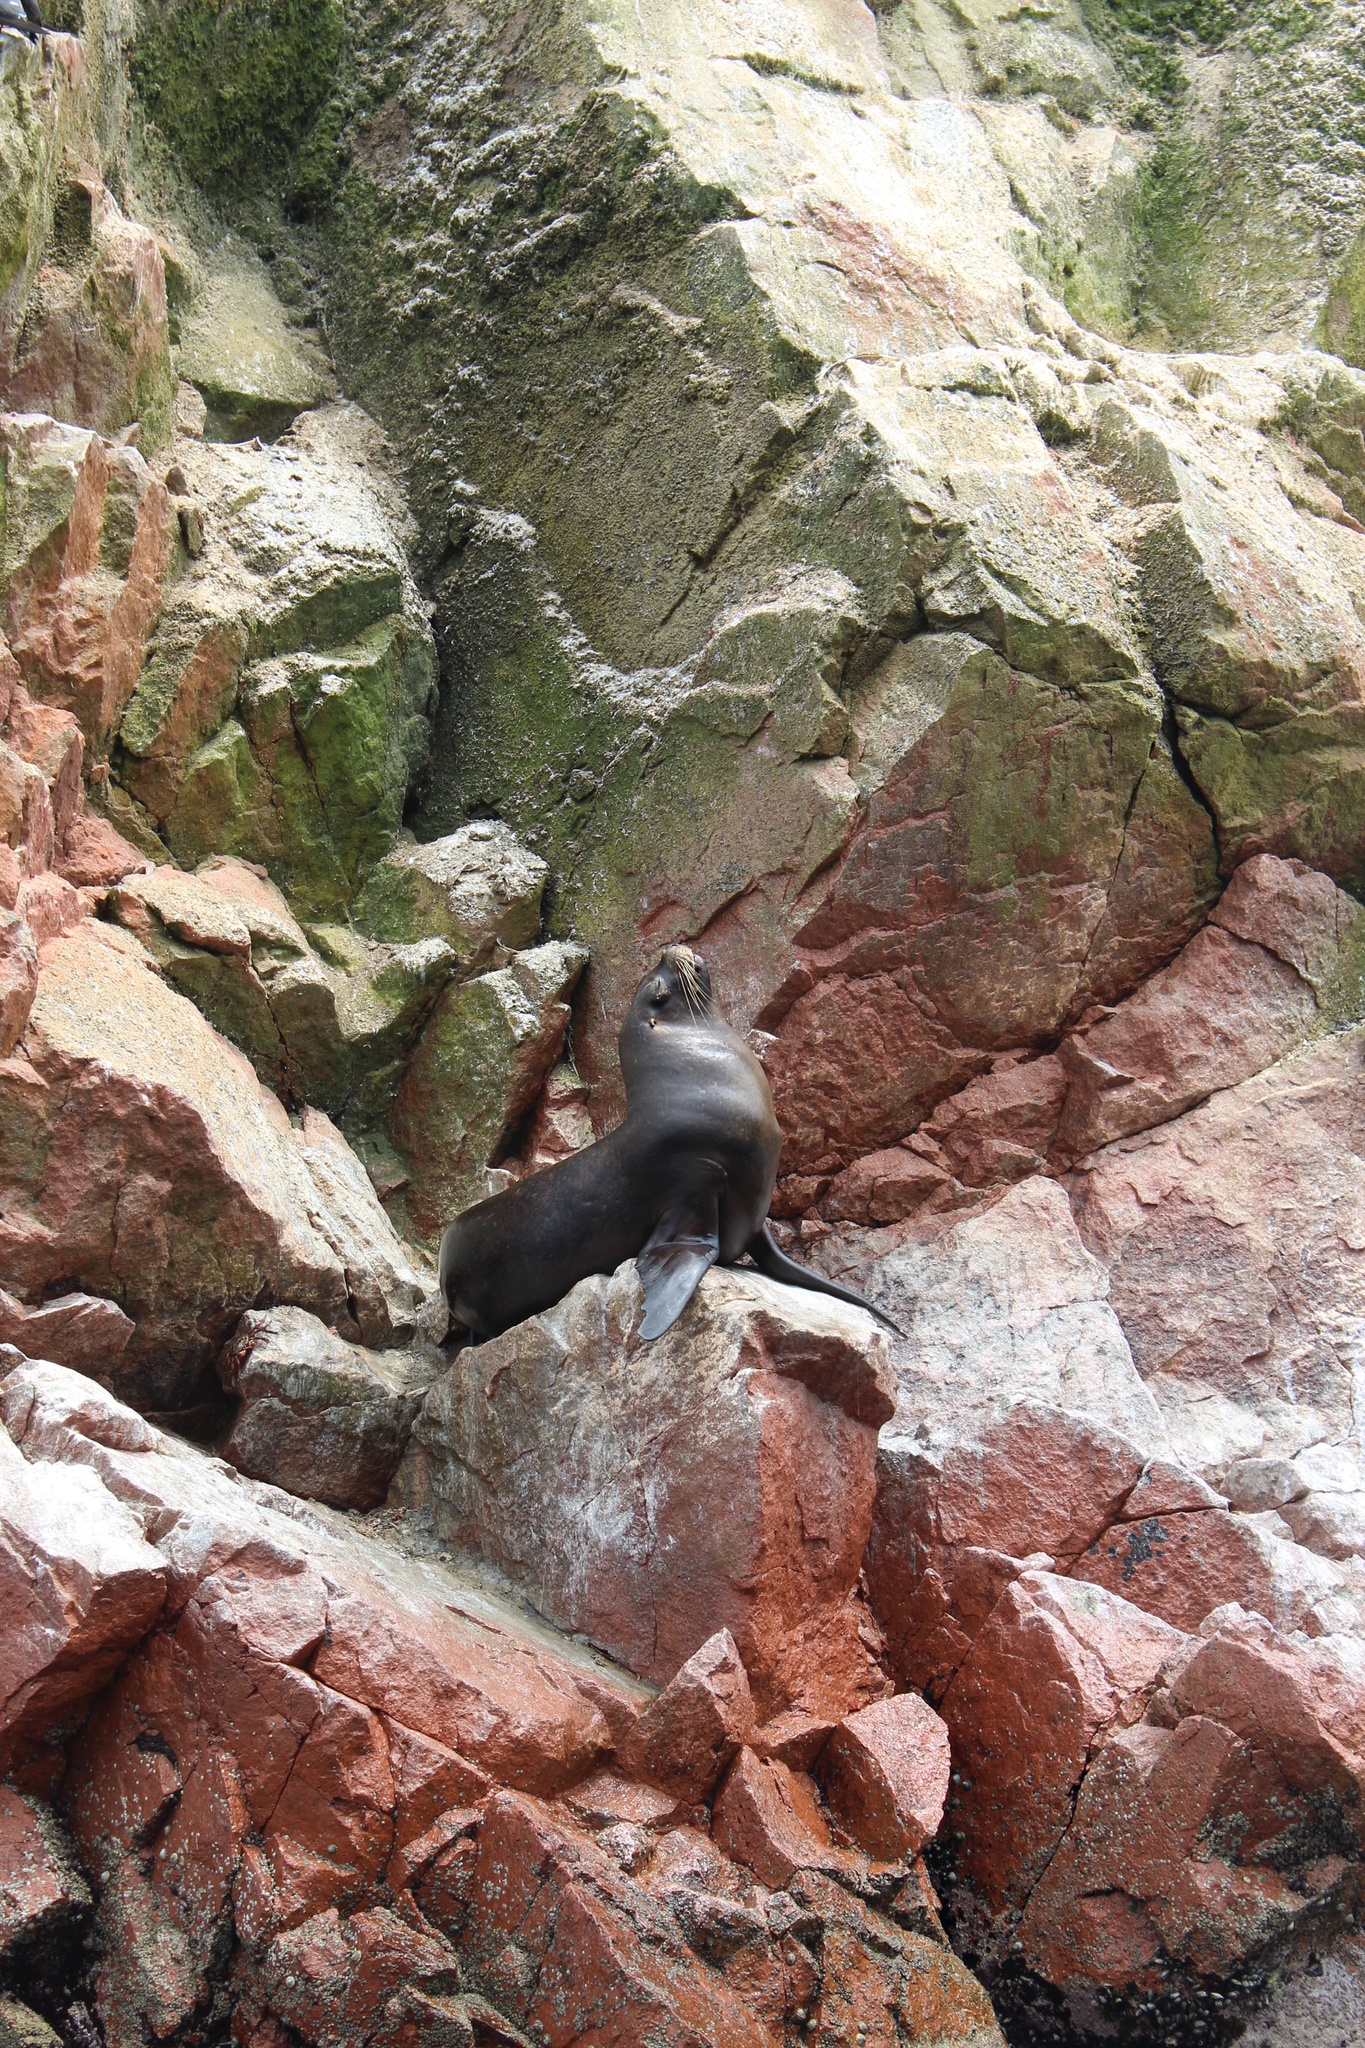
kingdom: Animalia
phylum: Chordata
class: Mammalia
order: Carnivora
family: Otariidae
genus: Otaria
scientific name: Otaria byronia
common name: South american sea lion
